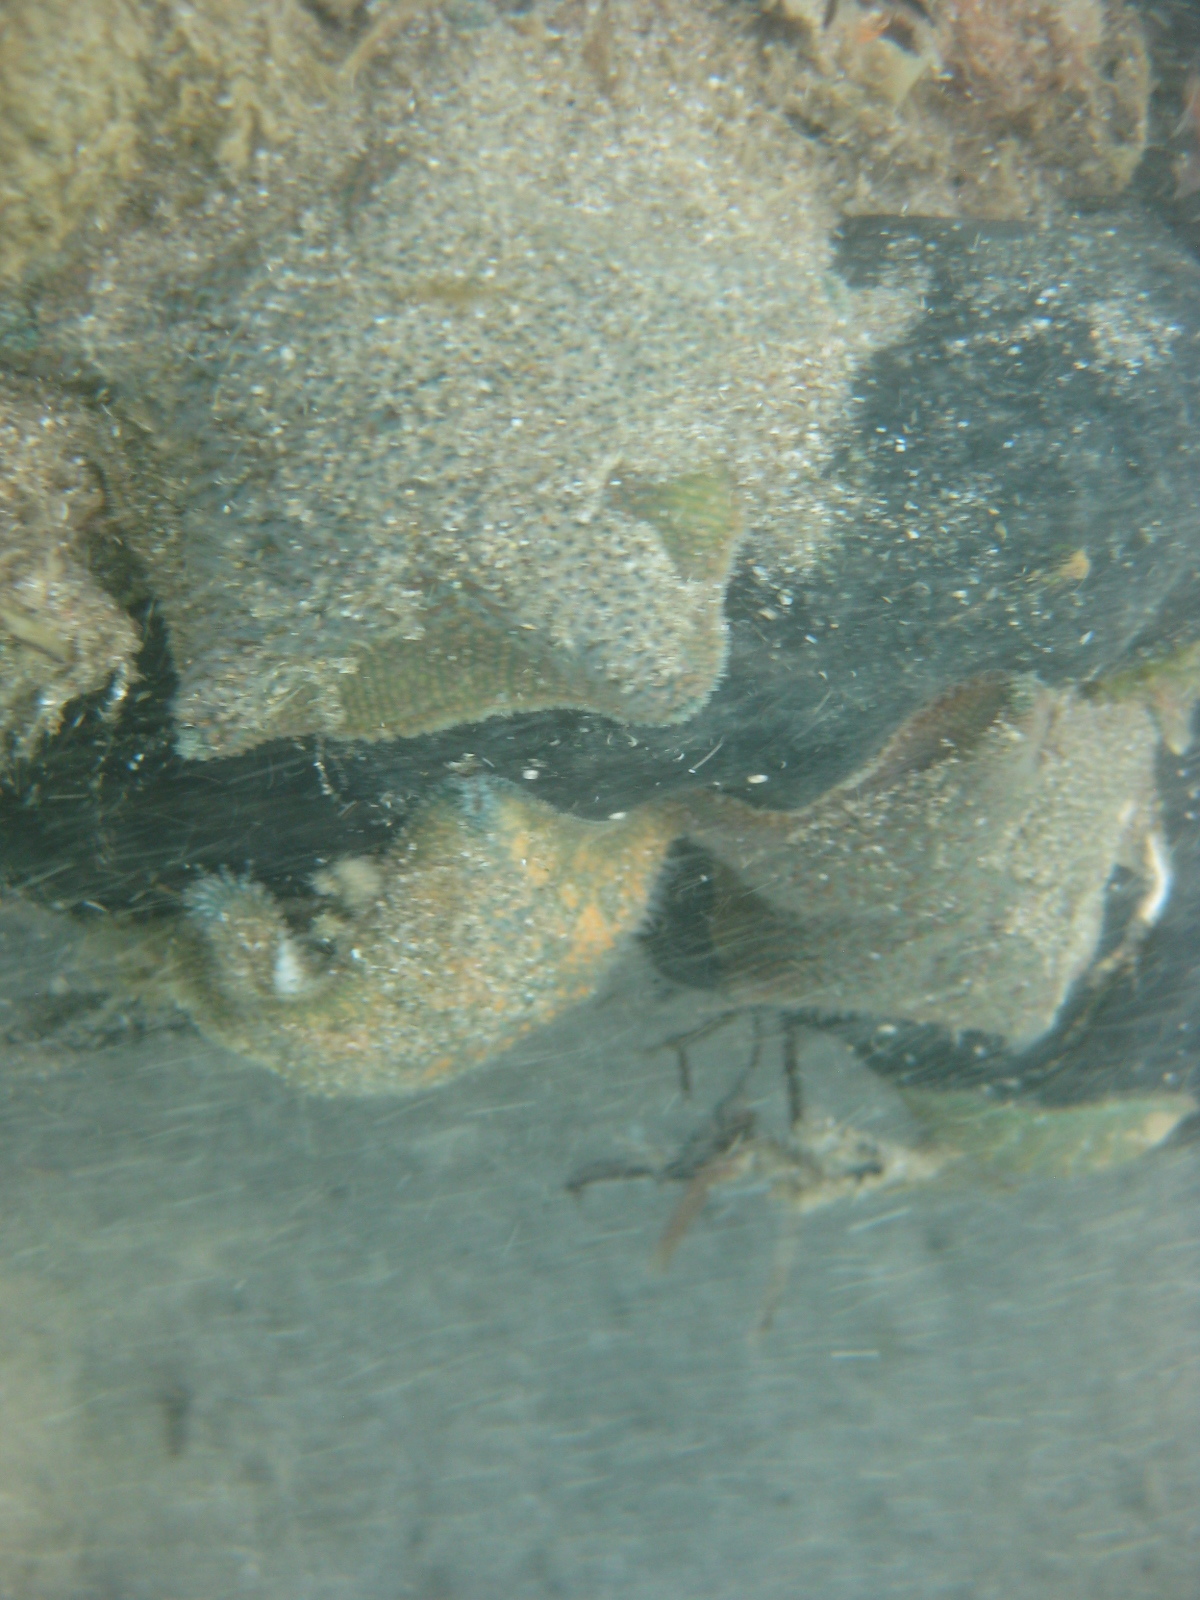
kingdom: Animalia
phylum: Echinodermata
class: Asteroidea
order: Valvatida
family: Asterinidae
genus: Patiriella
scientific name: Patiriella regularis
